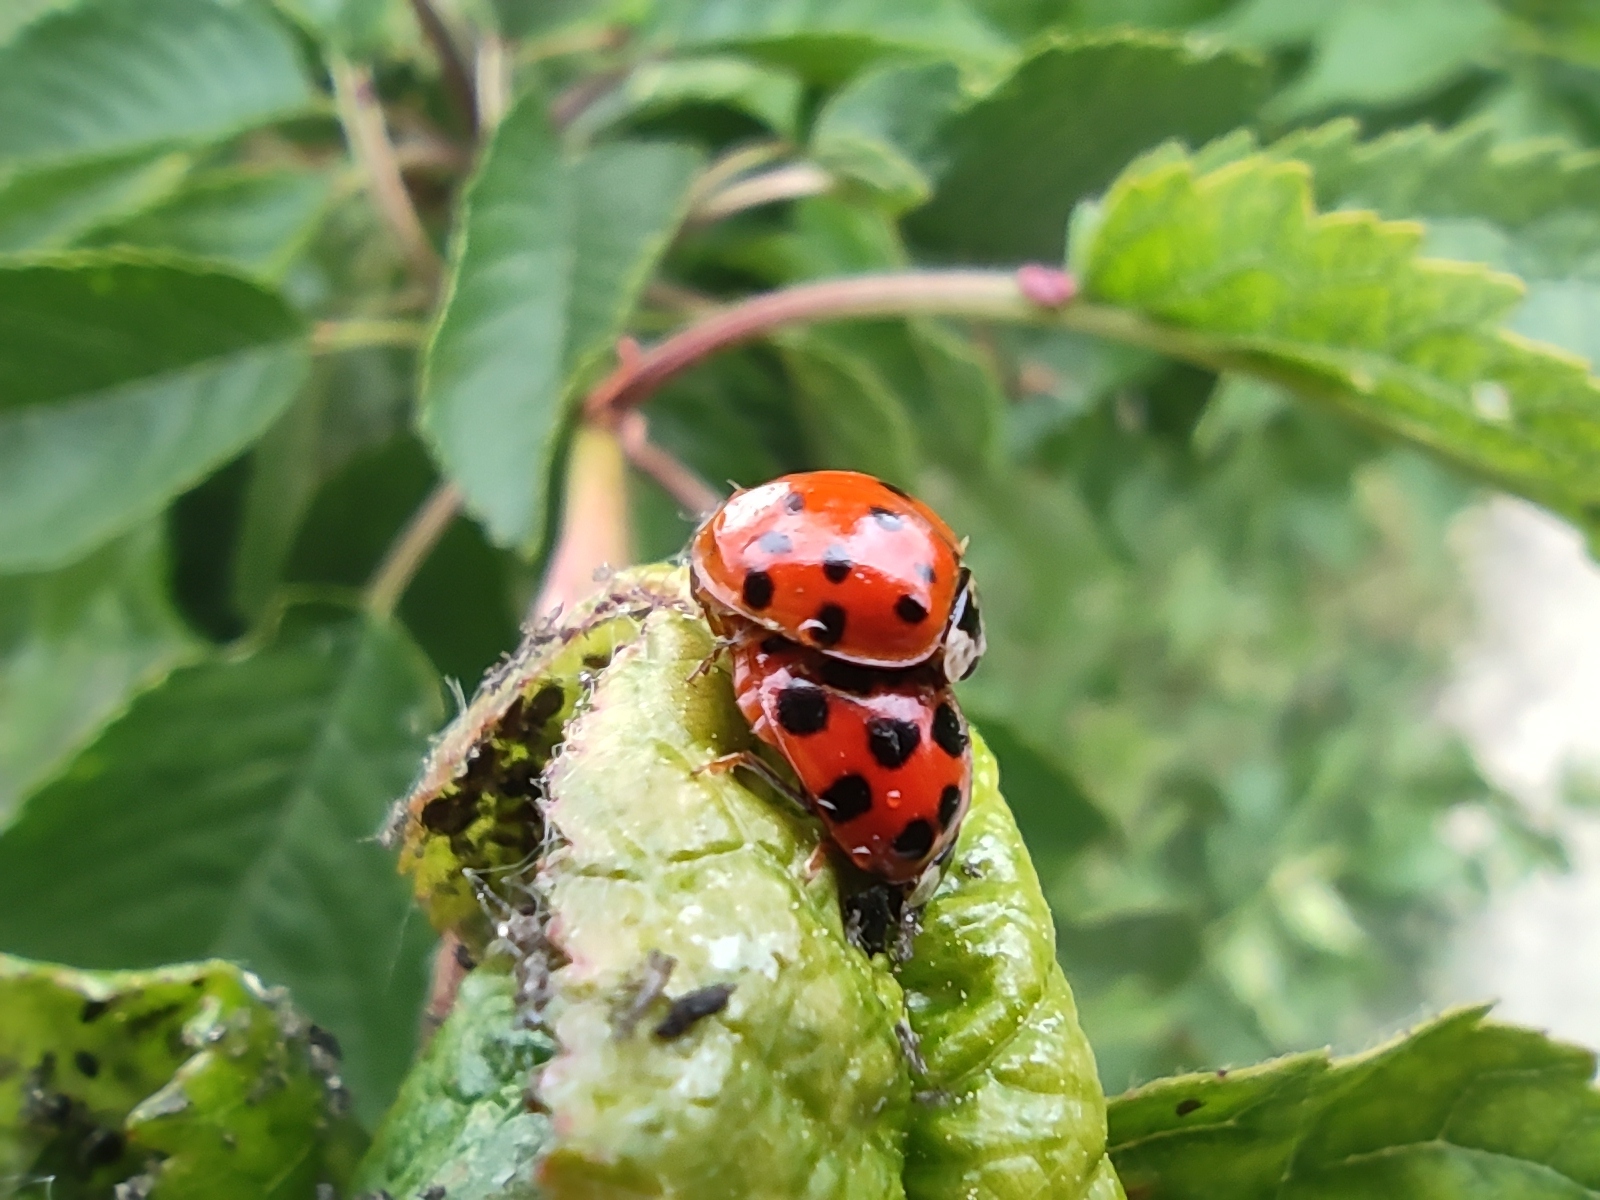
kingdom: Animalia
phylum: Arthropoda
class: Insecta
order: Coleoptera
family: Coccinellidae
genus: Harmonia
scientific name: Harmonia axyridis
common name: Harlequin ladybird
